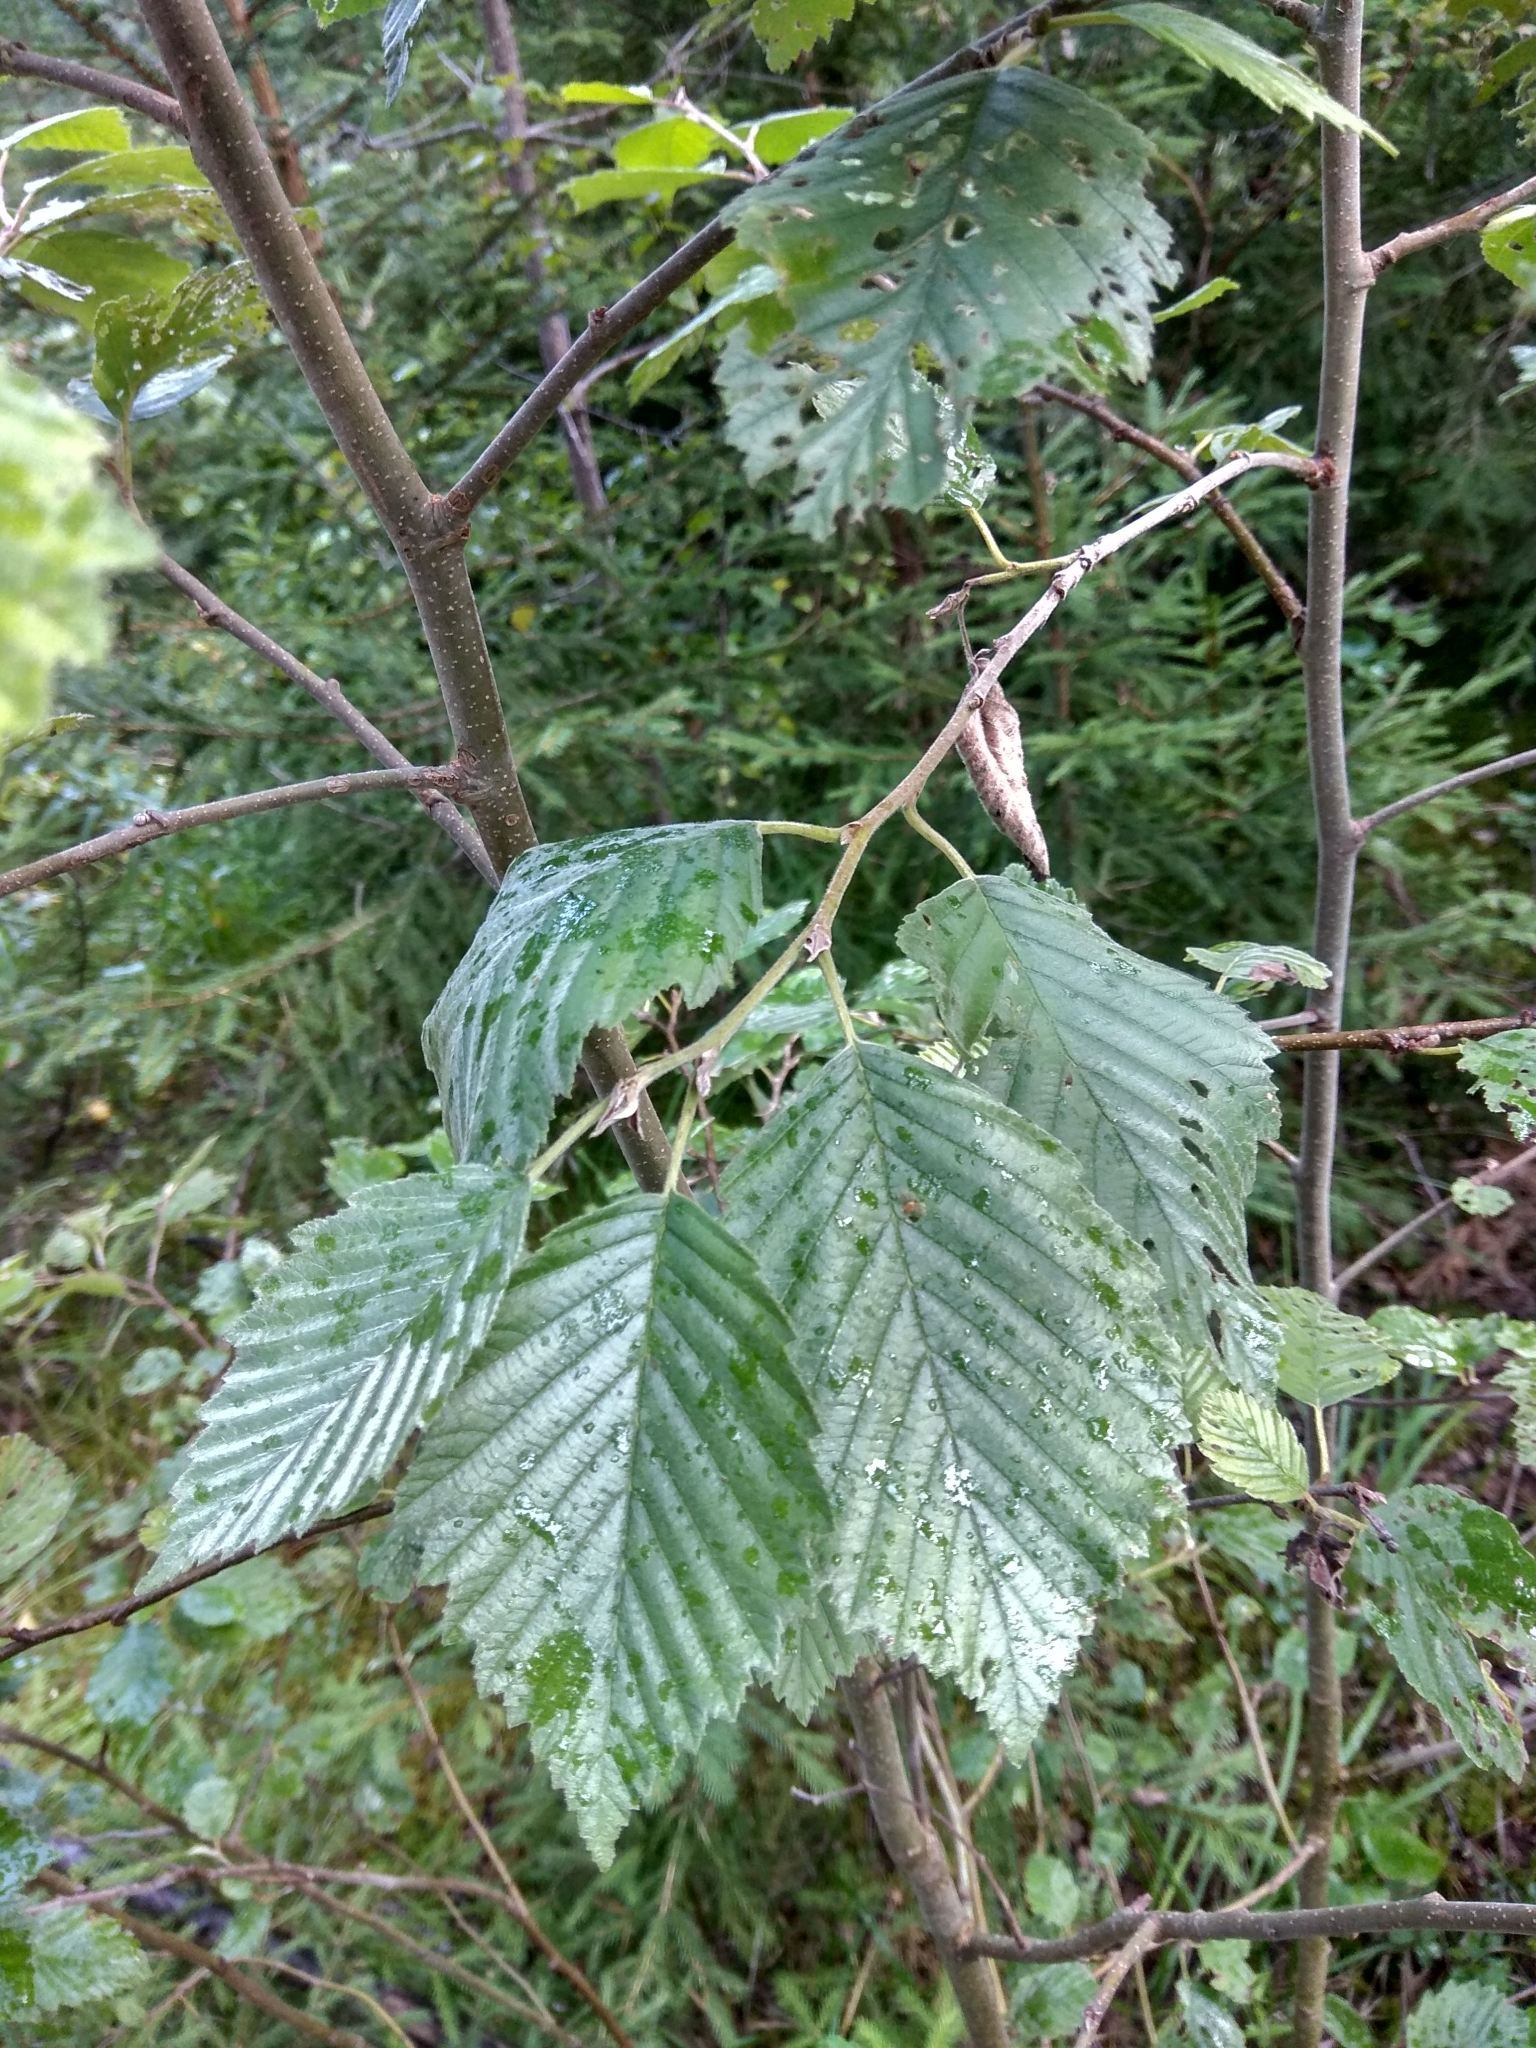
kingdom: Plantae
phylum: Tracheophyta
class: Magnoliopsida
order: Fagales
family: Betulaceae
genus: Alnus
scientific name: Alnus incana
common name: Grey alder
